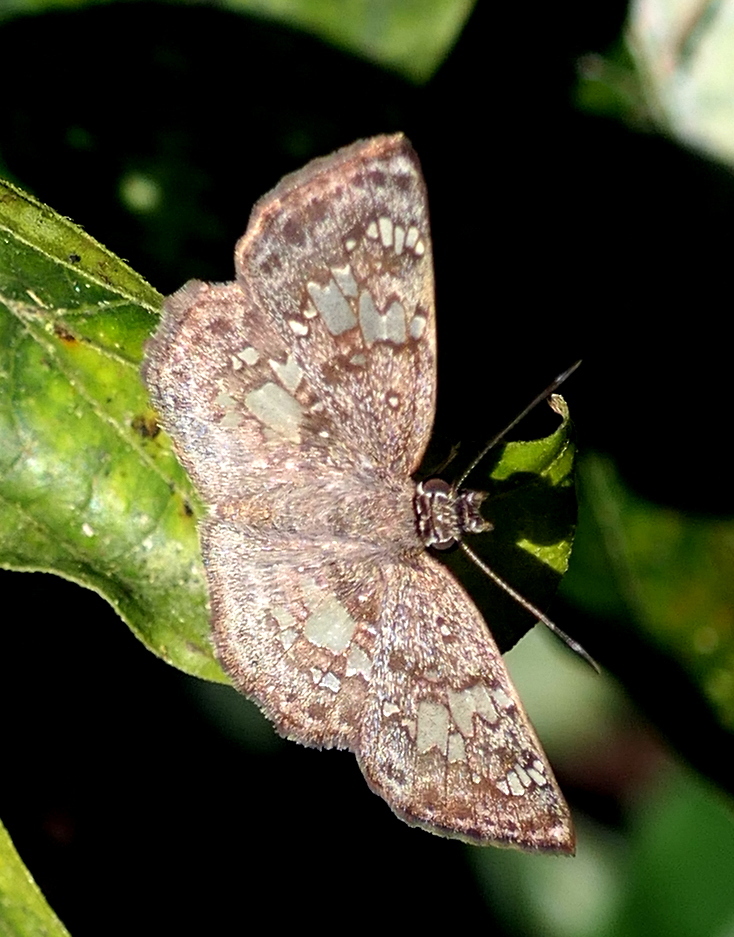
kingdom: Animalia
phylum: Arthropoda
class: Insecta
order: Lepidoptera
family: Hesperiidae
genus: Xenophanes
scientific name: Xenophanes tryxus
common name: Glassy-winged skipper
